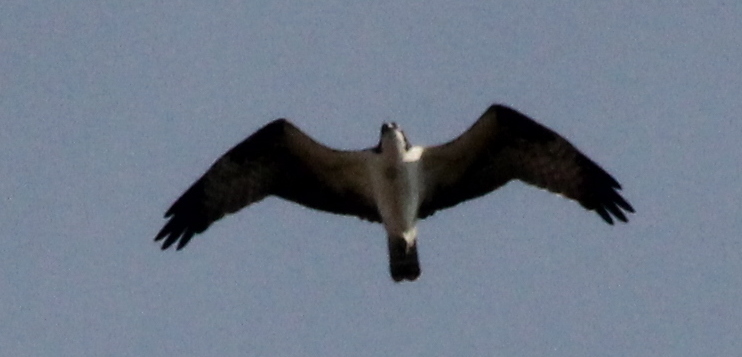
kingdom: Animalia
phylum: Chordata
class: Aves
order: Accipitriformes
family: Pandionidae
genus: Pandion
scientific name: Pandion haliaetus
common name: Osprey
